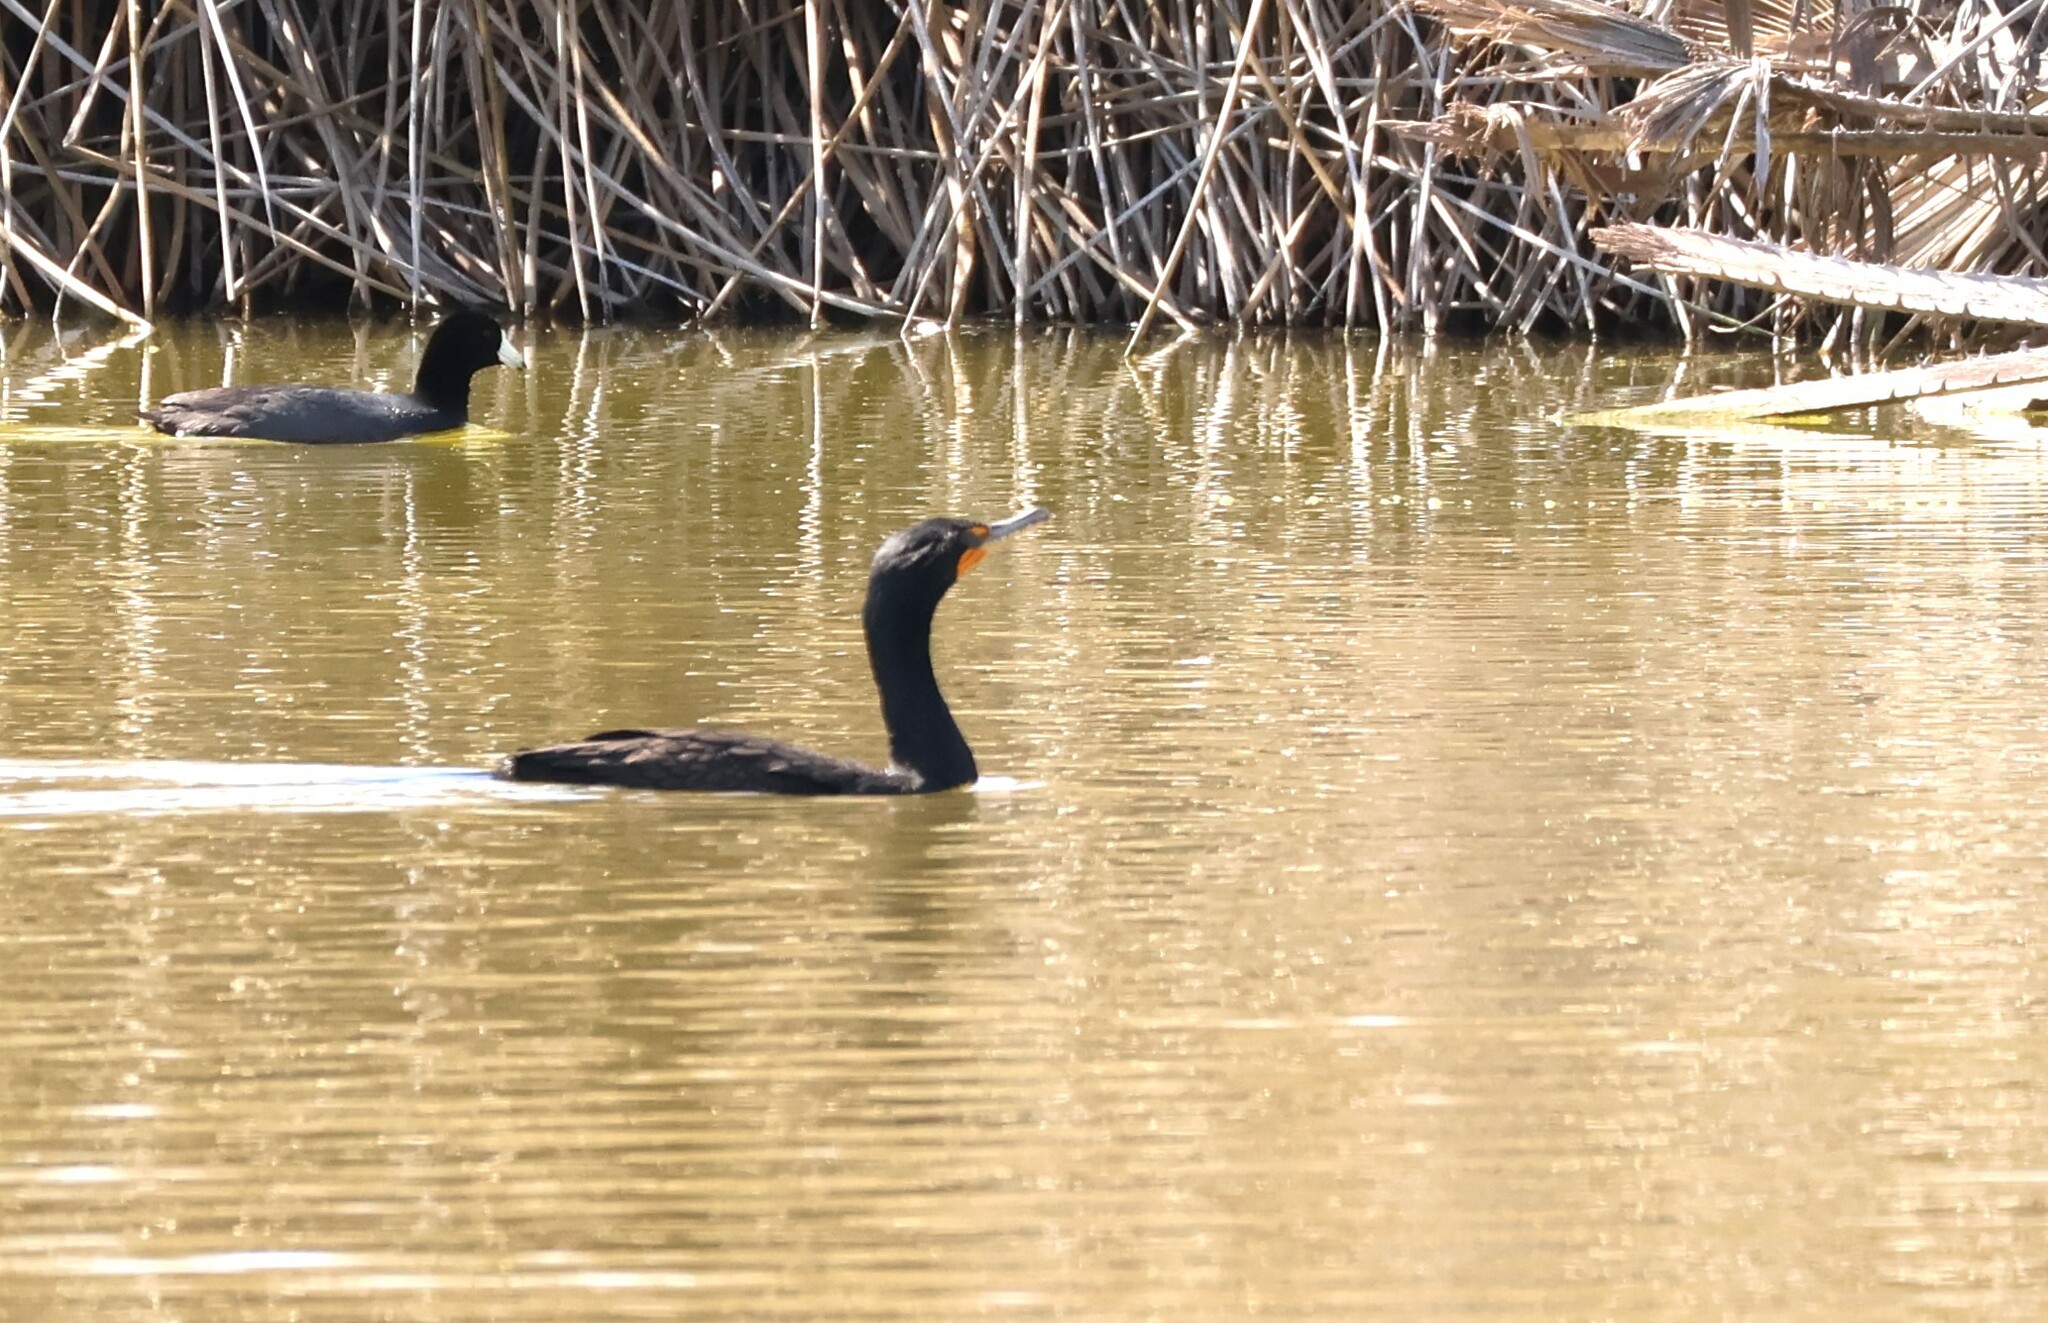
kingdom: Animalia
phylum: Chordata
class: Aves
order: Suliformes
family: Phalacrocoracidae
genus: Phalacrocorax
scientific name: Phalacrocorax auritus
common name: Double-crested cormorant
